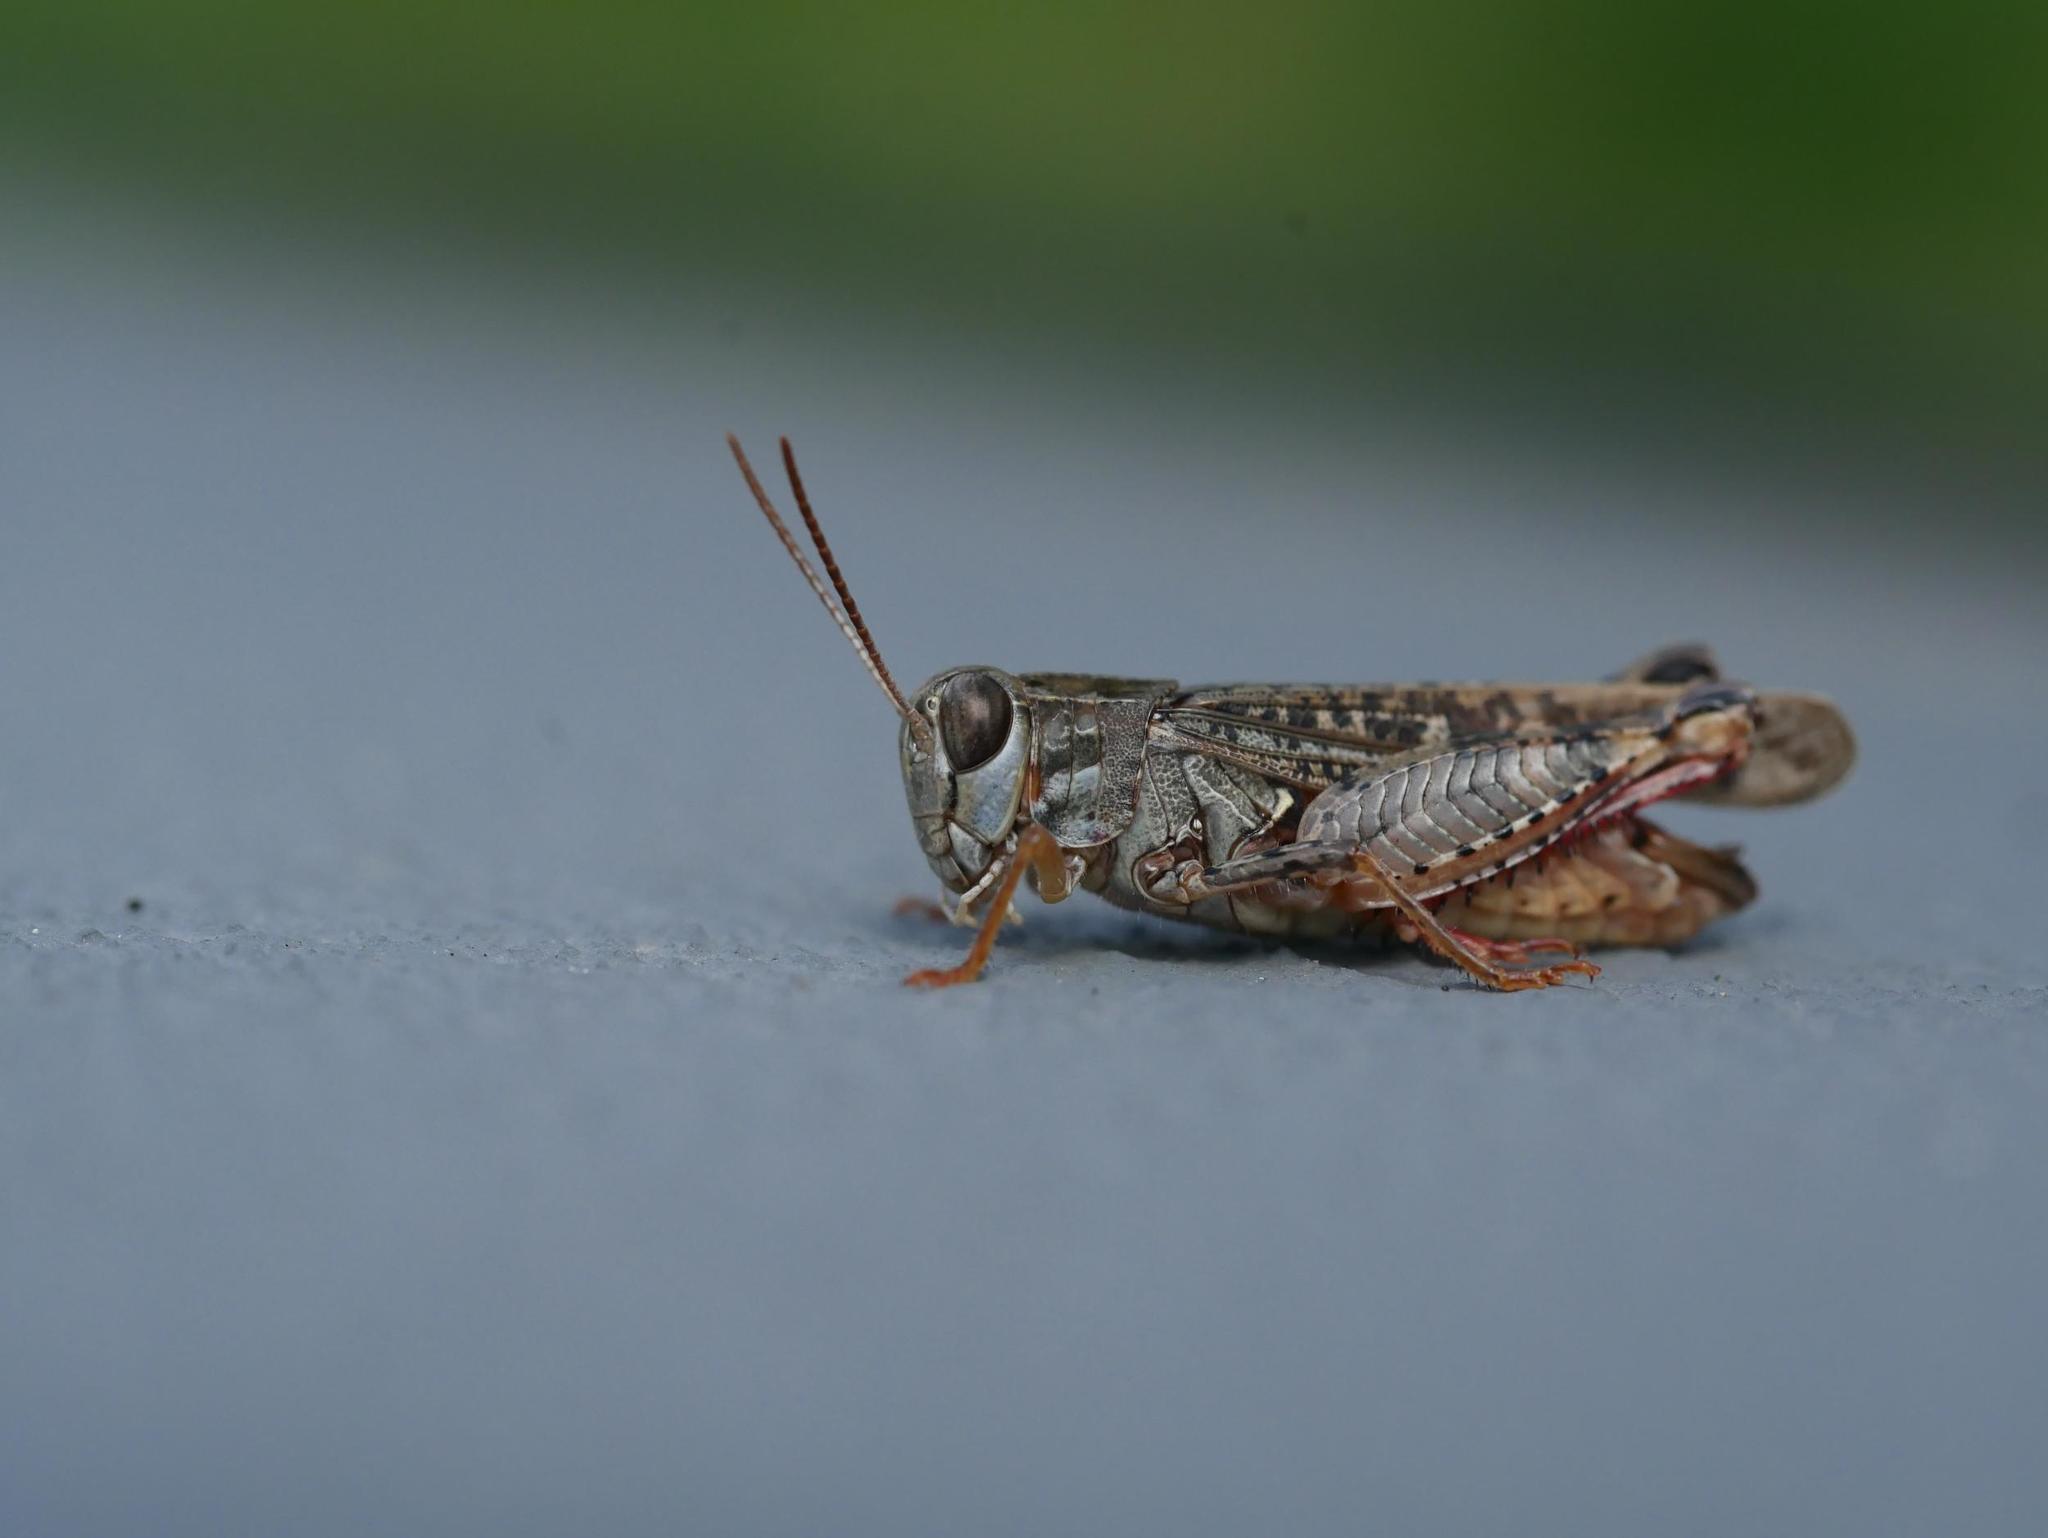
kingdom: Animalia
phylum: Arthropoda
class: Insecta
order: Orthoptera
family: Acrididae
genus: Calliptamus
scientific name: Calliptamus italicus
